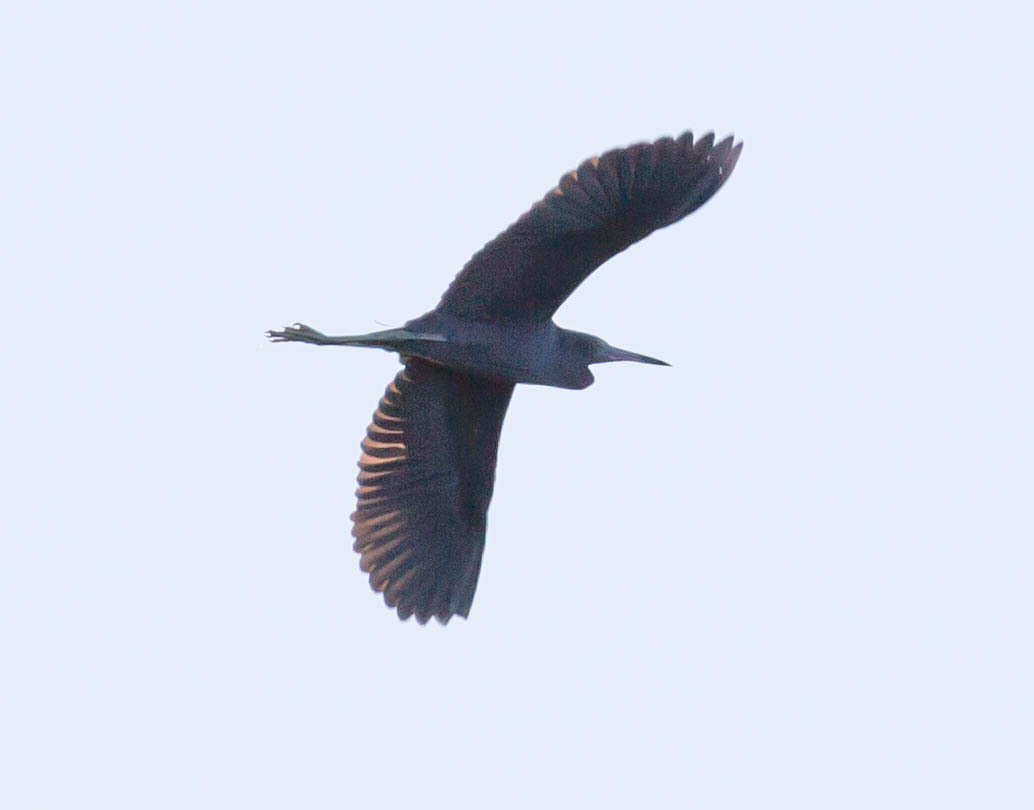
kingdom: Animalia
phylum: Chordata
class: Aves
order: Pelecaniformes
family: Ardeidae
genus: Egretta
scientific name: Egretta caerulea
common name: Little blue heron
